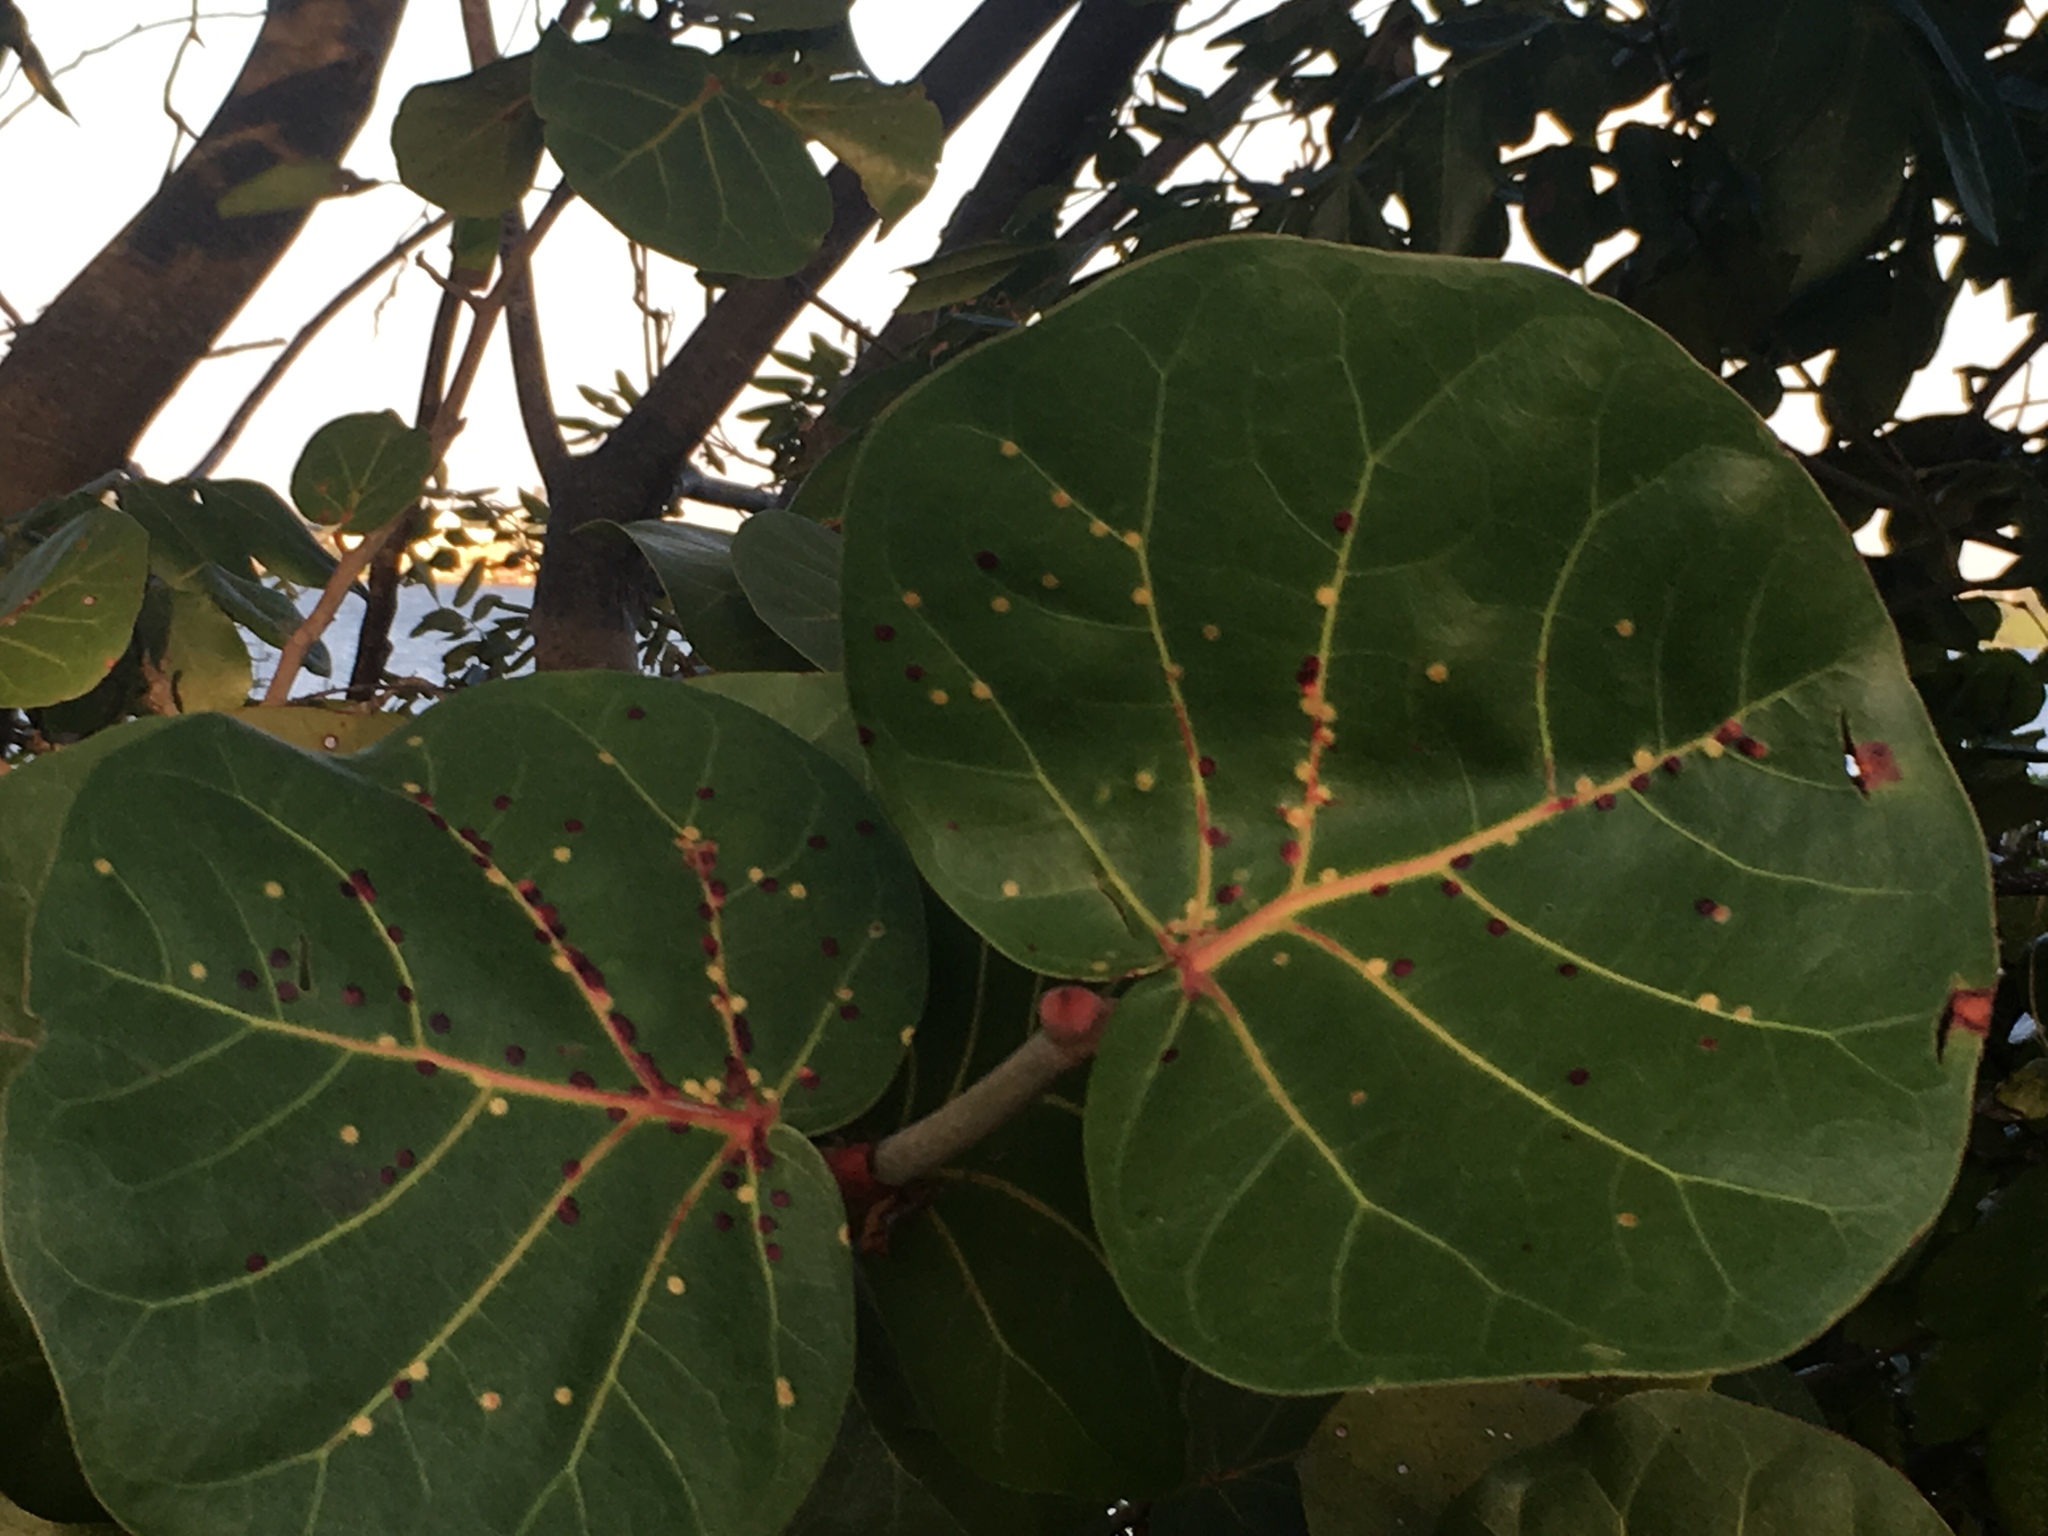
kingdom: Plantae
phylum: Tracheophyta
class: Magnoliopsida
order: Caryophyllales
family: Polygonaceae
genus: Coccoloba
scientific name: Coccoloba uvifera
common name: Seagrape
